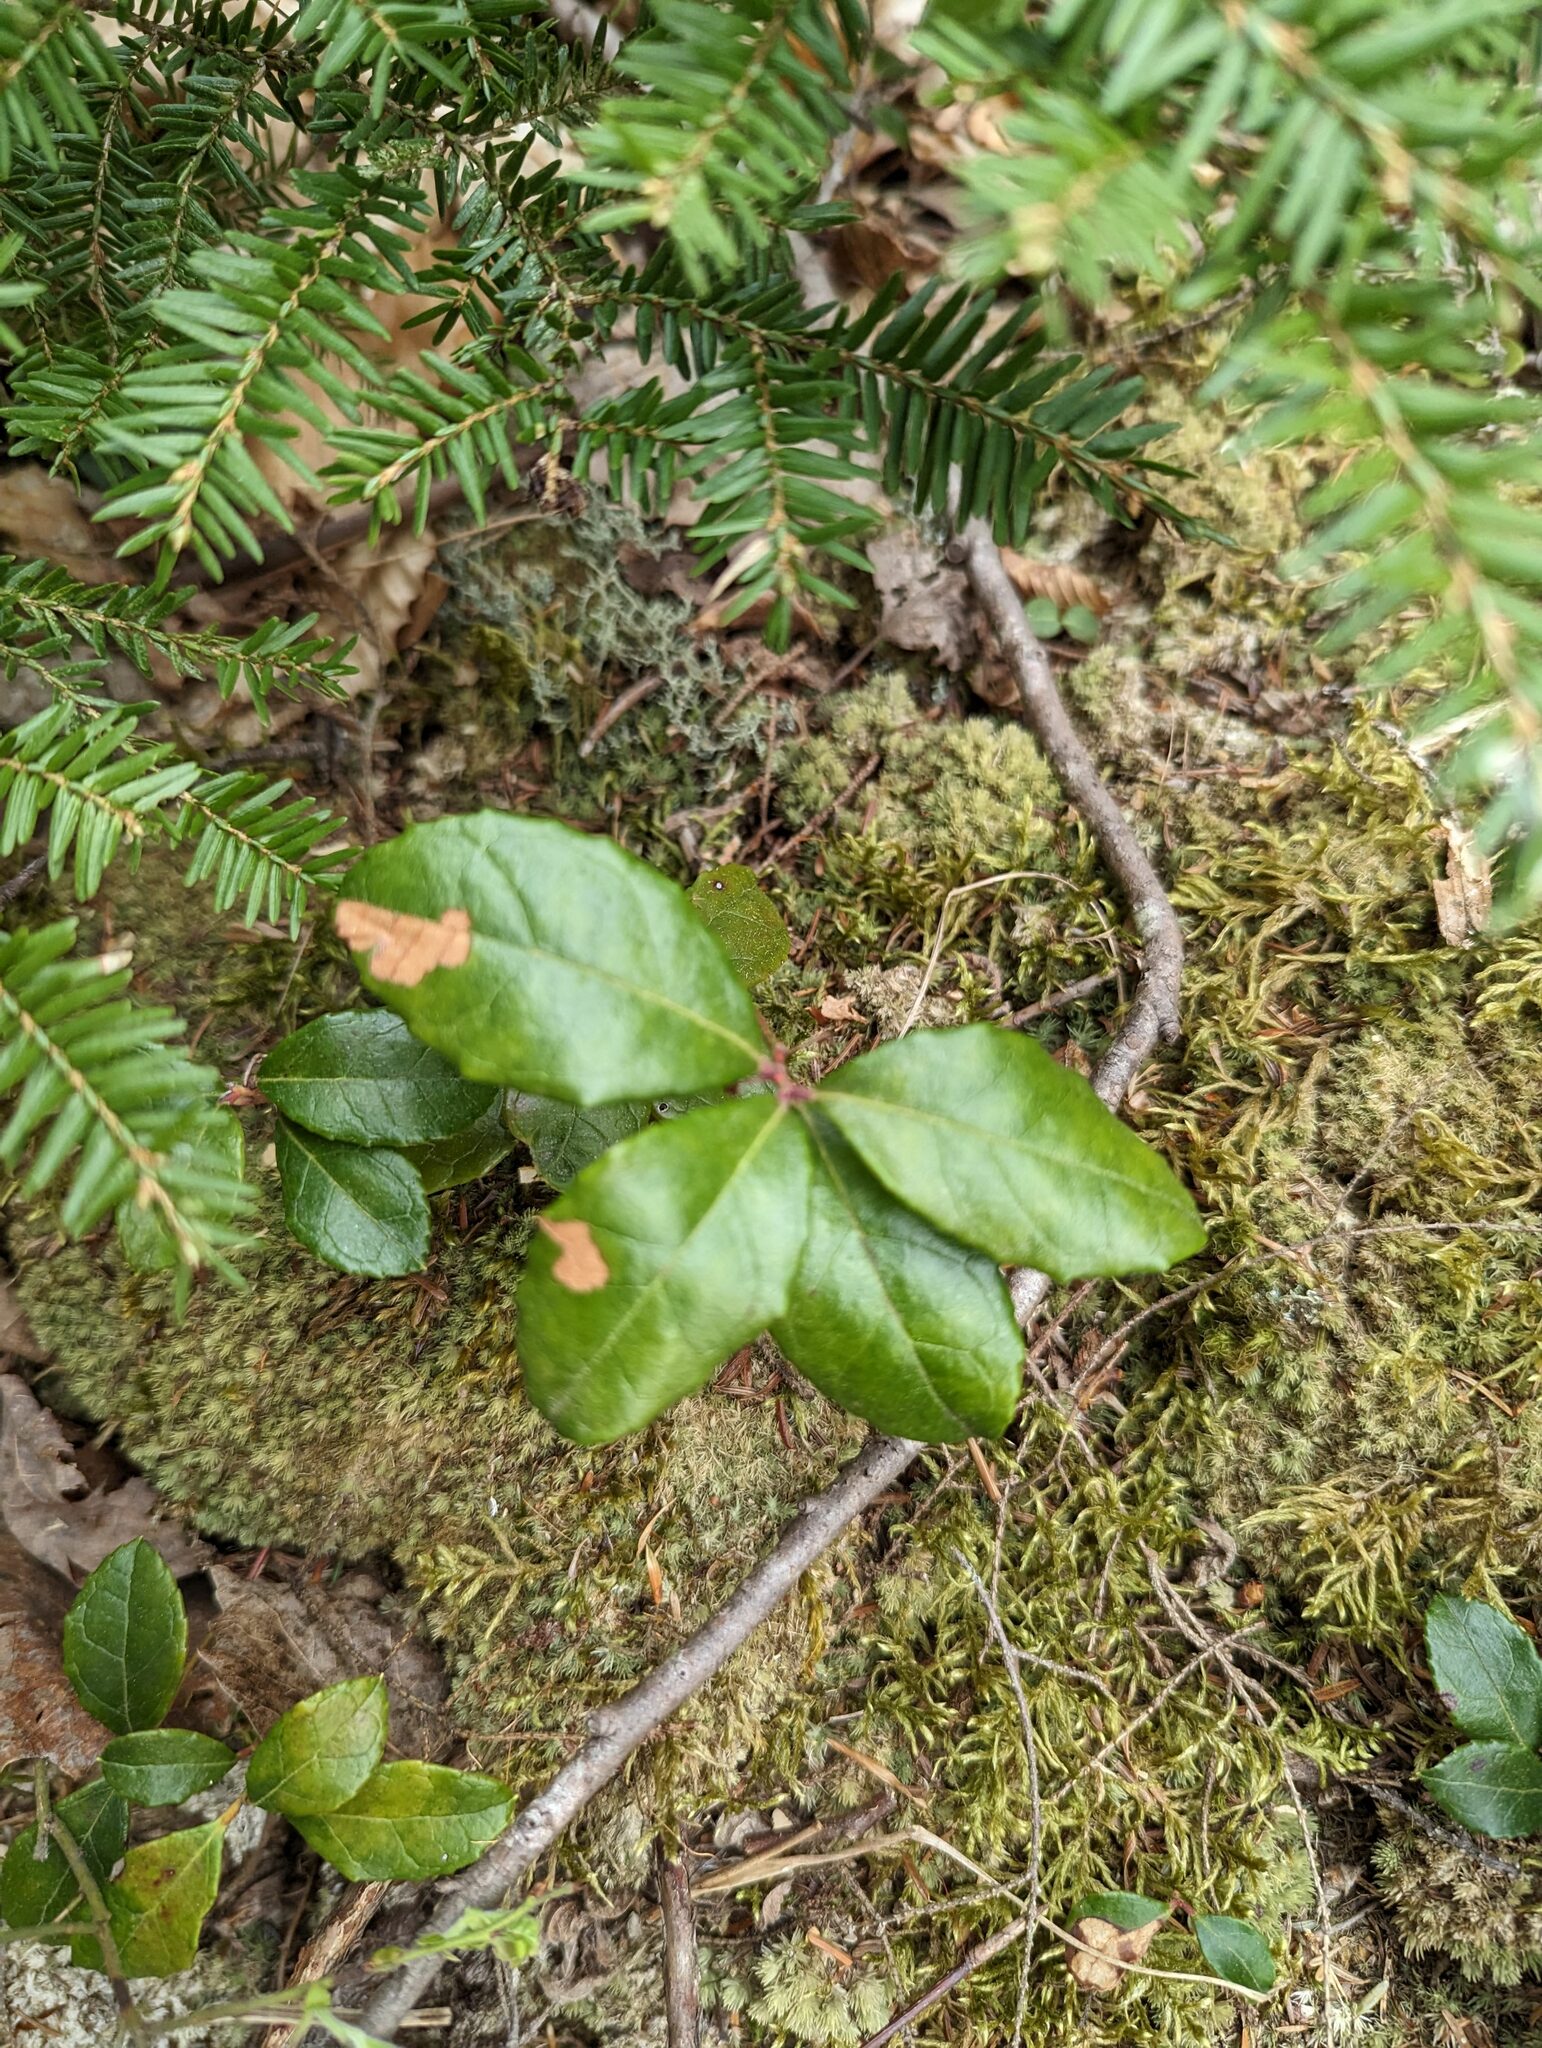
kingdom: Plantae
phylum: Tracheophyta
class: Magnoliopsida
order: Ericales
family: Ericaceae
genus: Gaultheria
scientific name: Gaultheria procumbens
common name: Checkerberry
